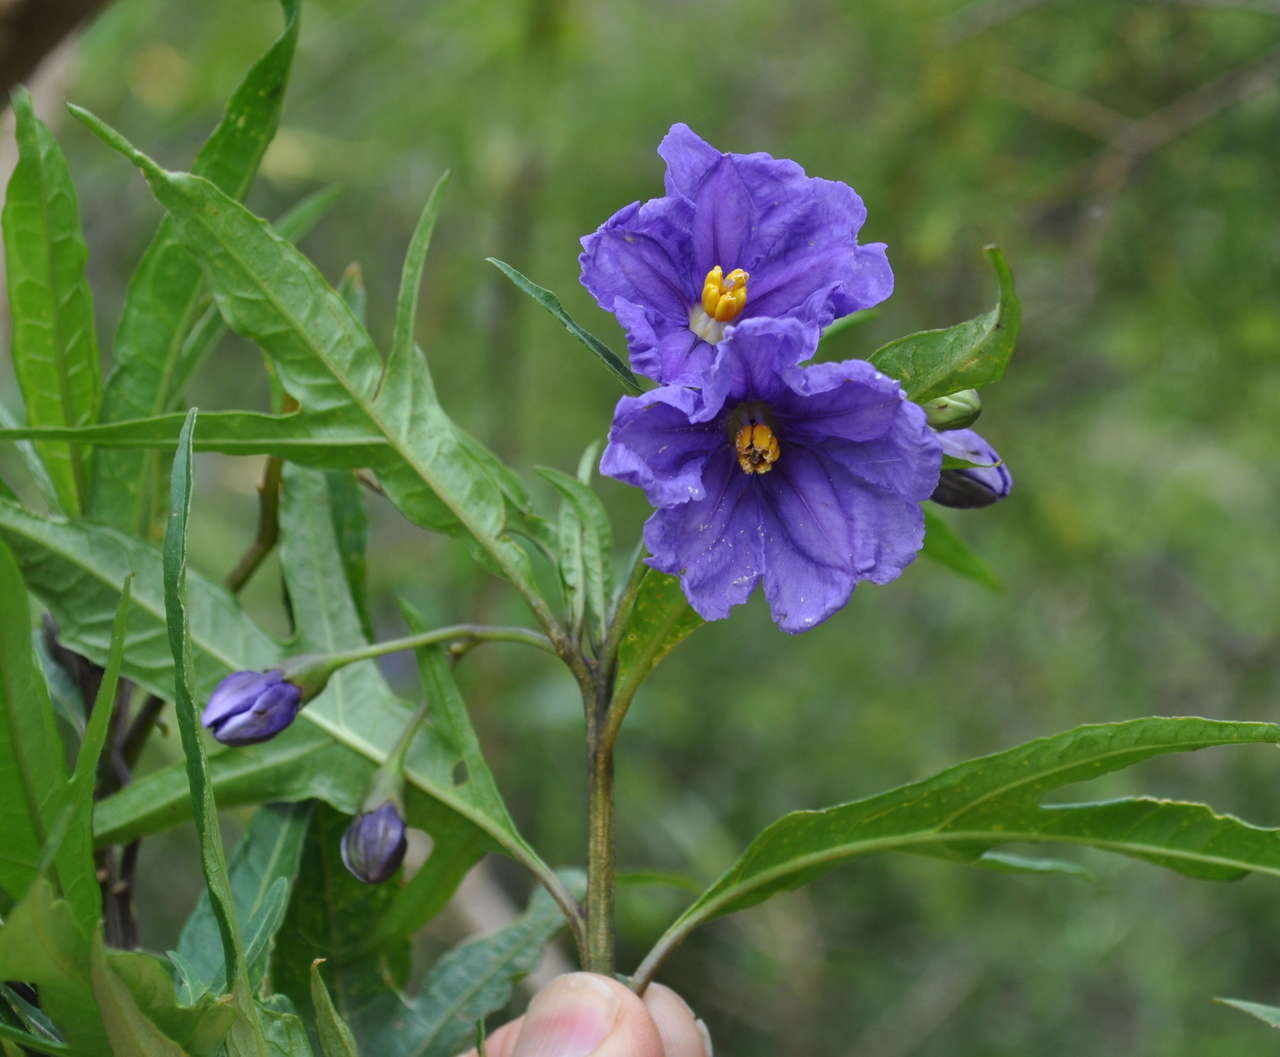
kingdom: Plantae
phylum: Tracheophyta
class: Magnoliopsida
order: Solanales
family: Solanaceae
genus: Solanum
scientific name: Solanum laciniatum
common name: Kangaroo-apple
